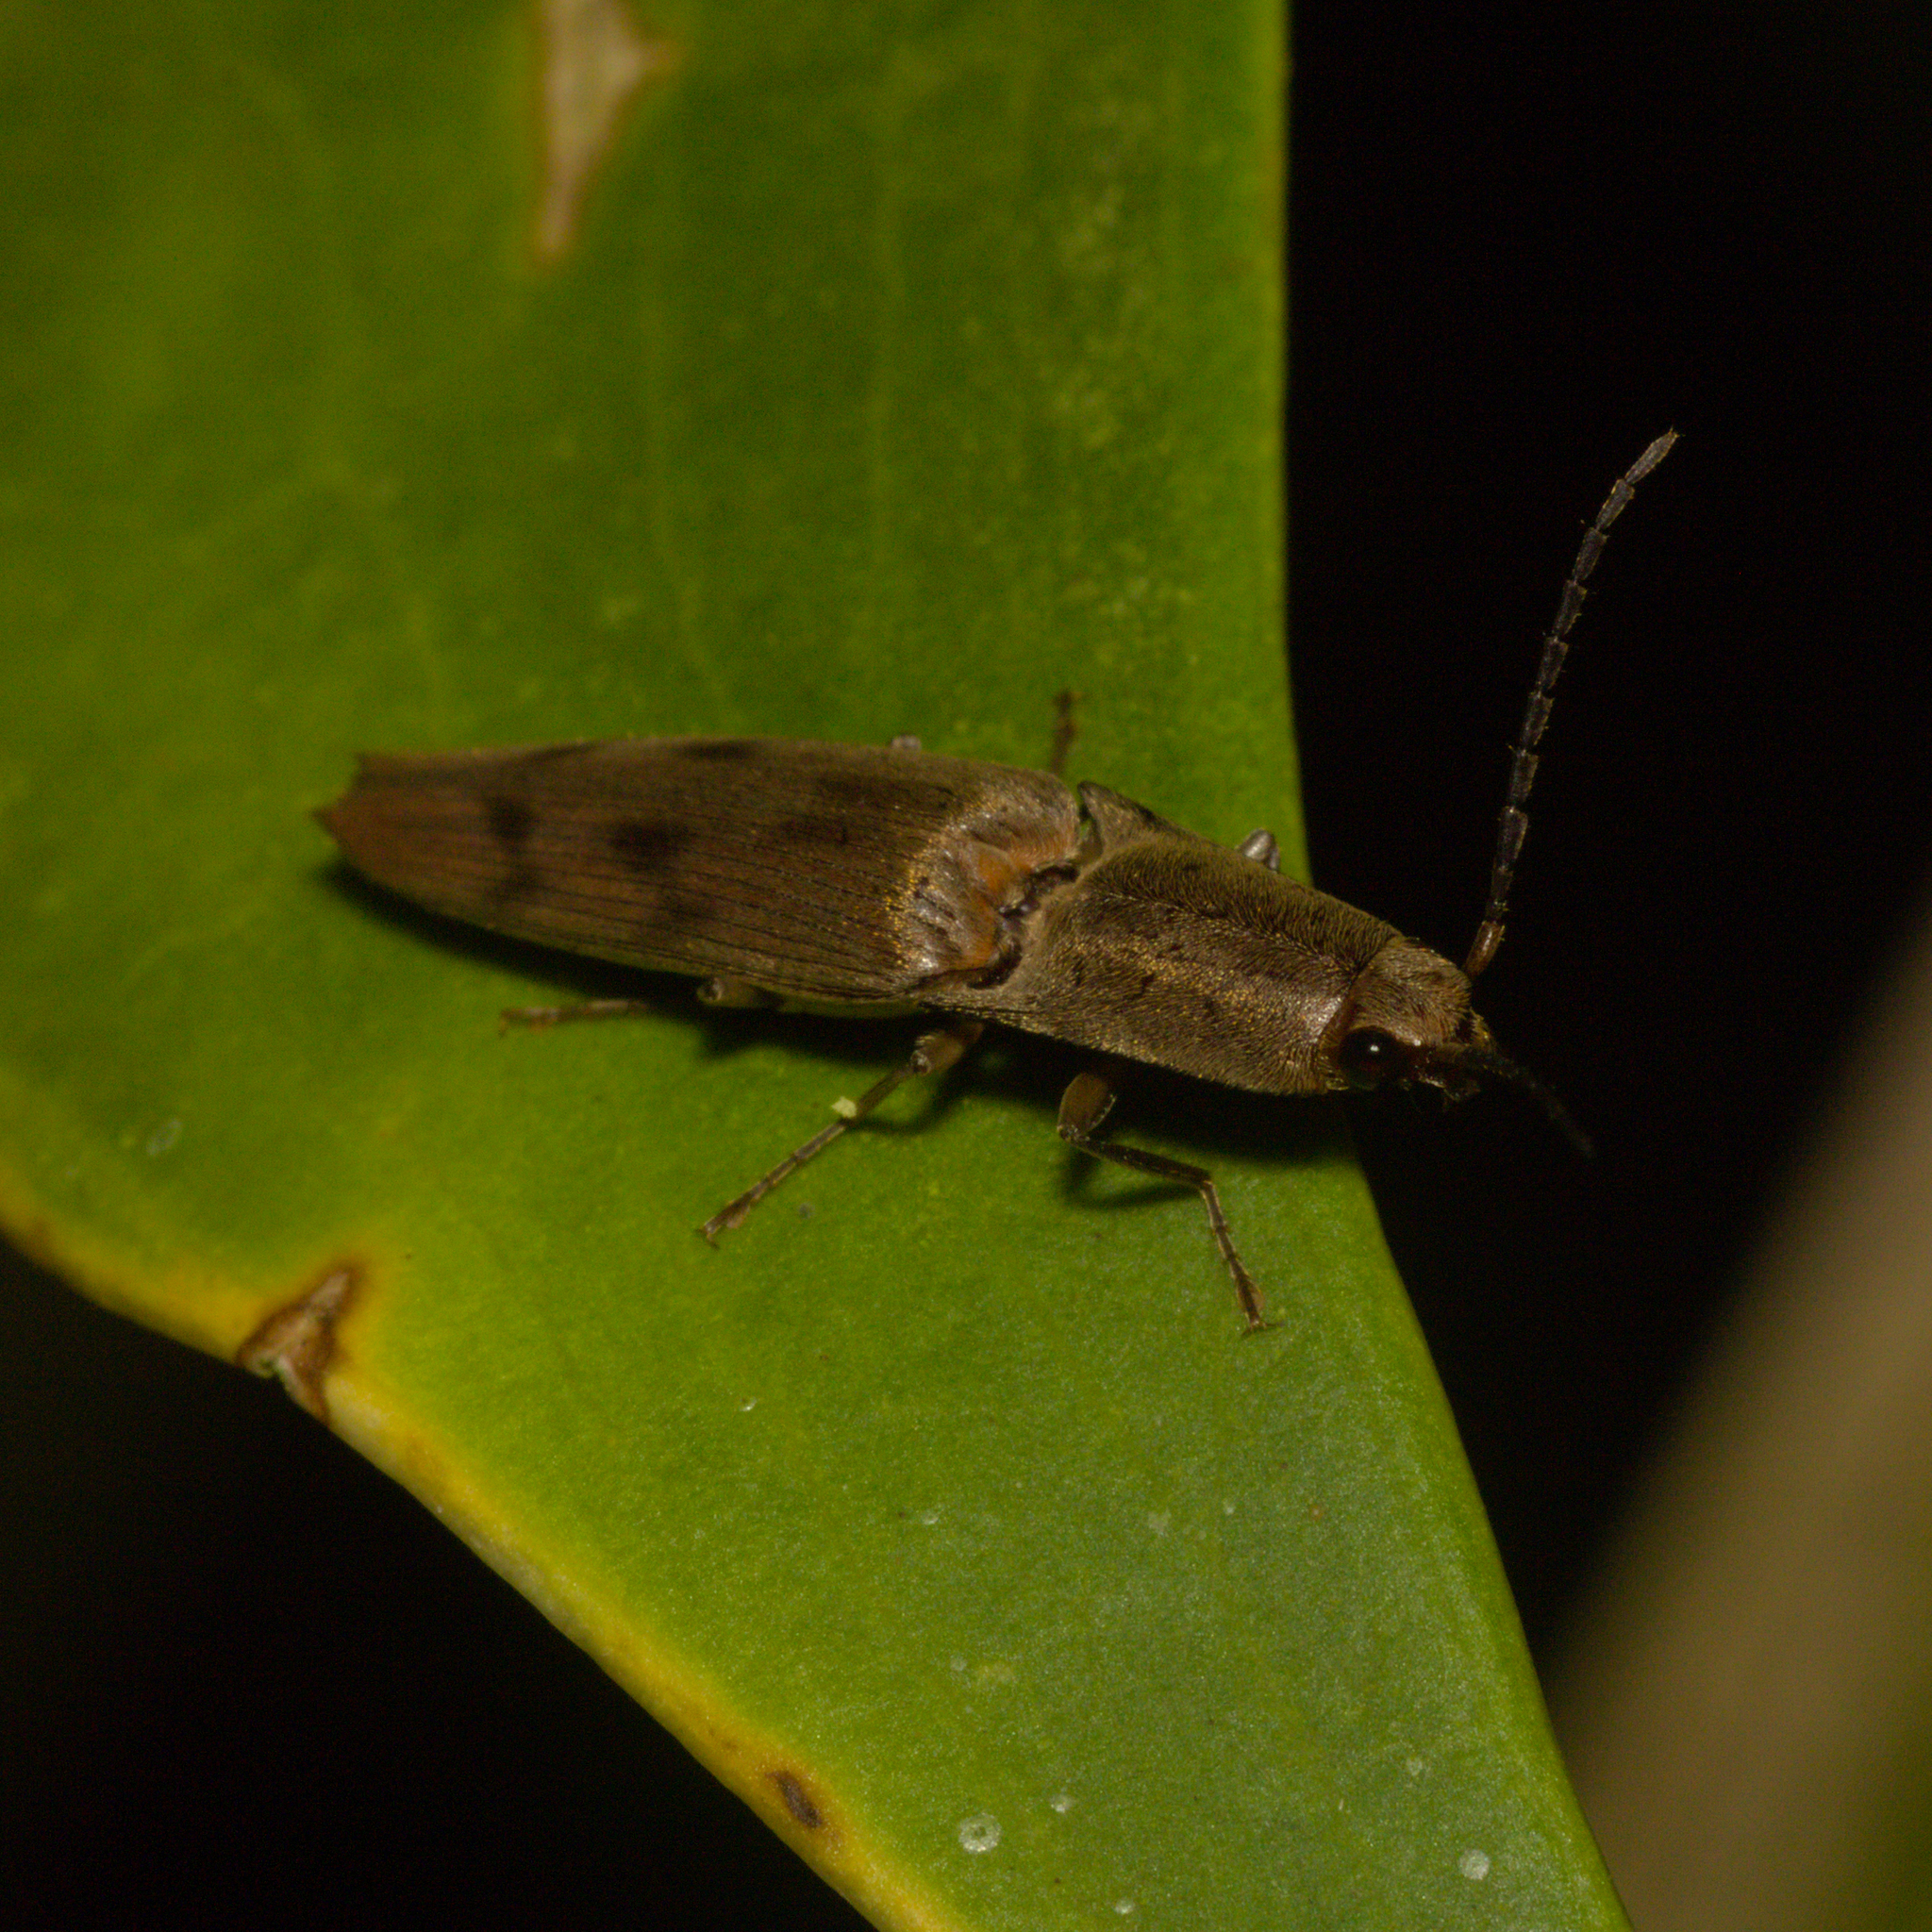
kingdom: Animalia
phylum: Arthropoda
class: Insecta
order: Coleoptera
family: Elateridae
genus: Monocrepidius
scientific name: Monocrepidius
